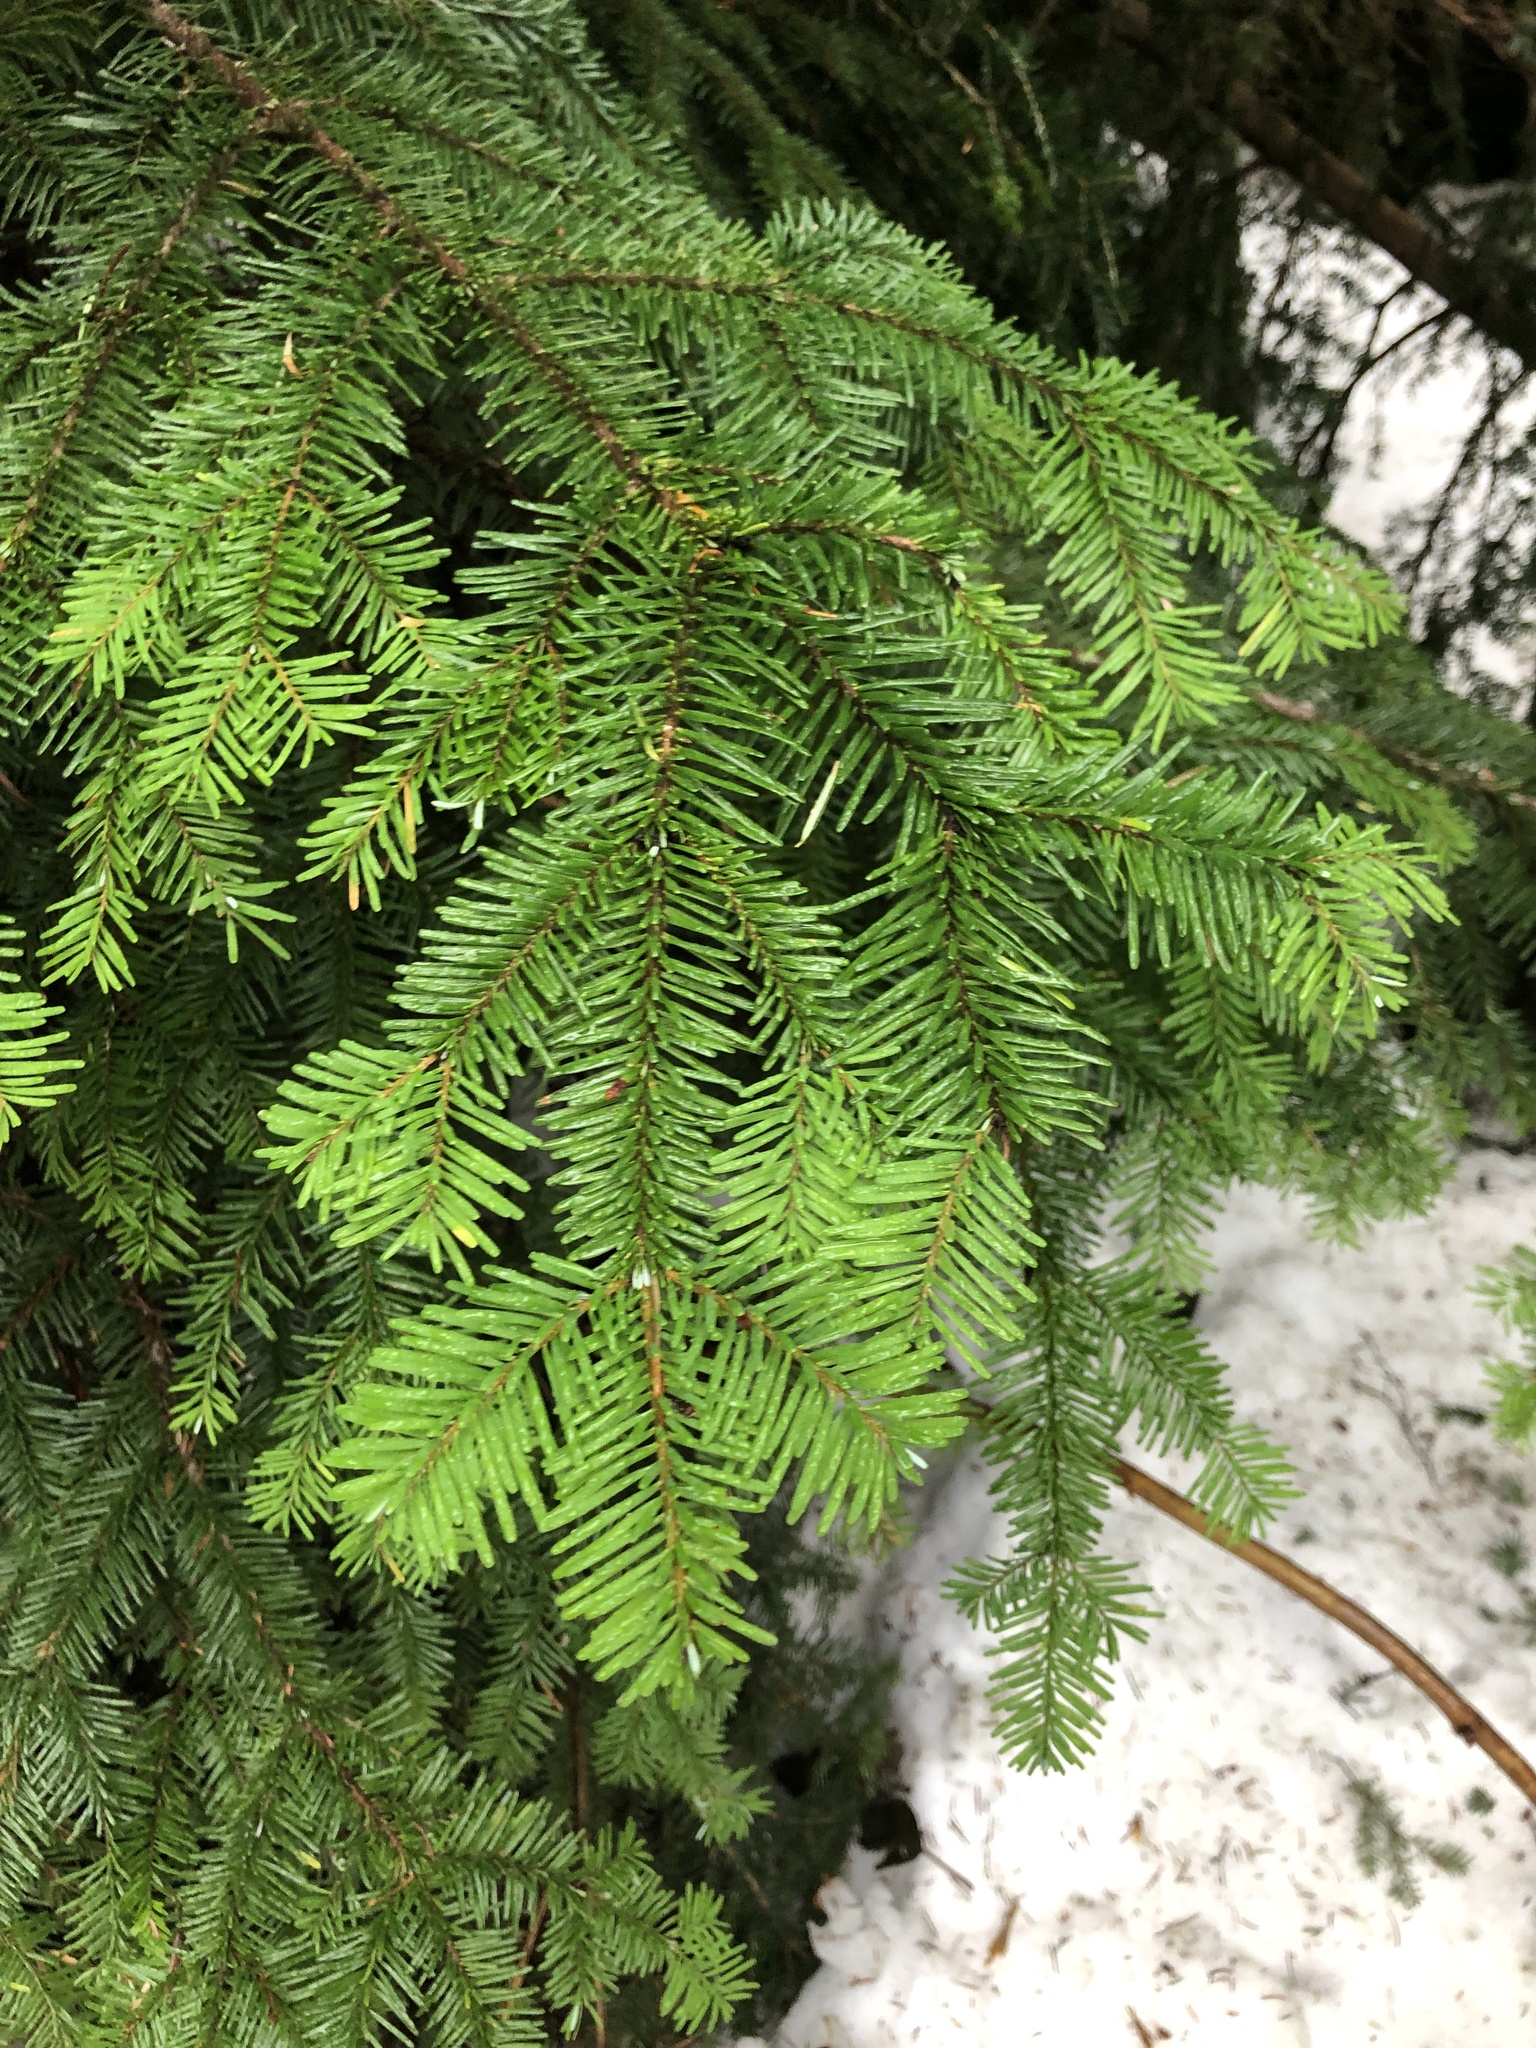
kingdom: Plantae
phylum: Tracheophyta
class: Pinopsida
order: Pinales
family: Pinaceae
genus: Abies
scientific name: Abies amabilis
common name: Pacific silver fir
